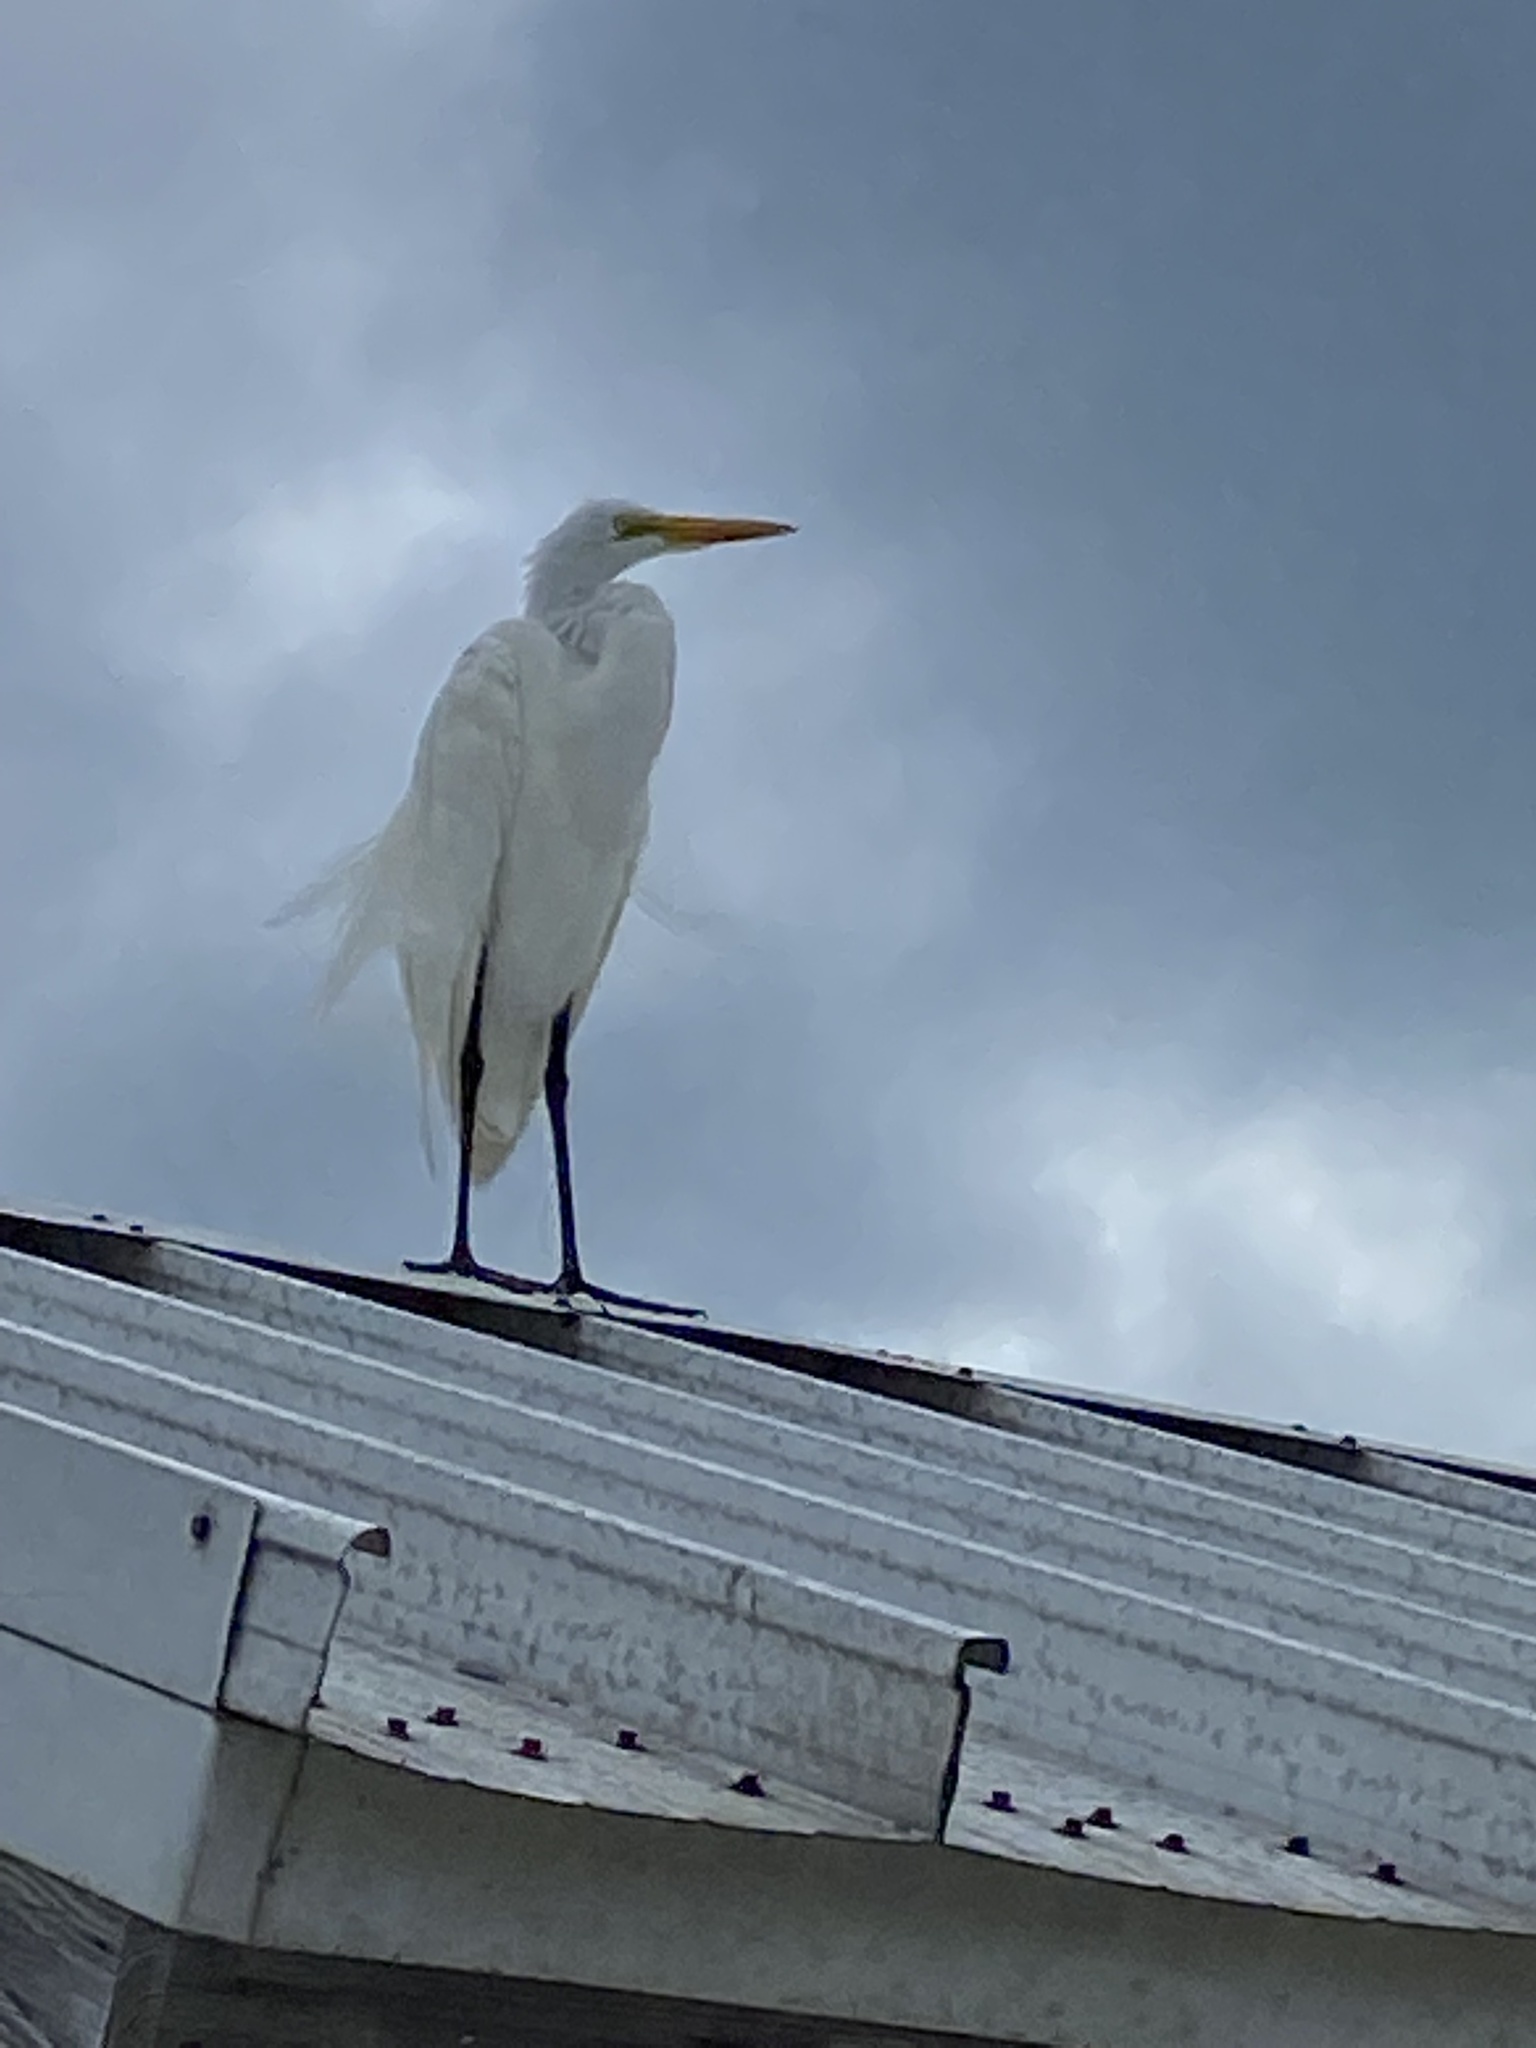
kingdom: Animalia
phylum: Chordata
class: Aves
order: Pelecaniformes
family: Ardeidae
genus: Ardea
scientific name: Ardea alba
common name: Great egret
